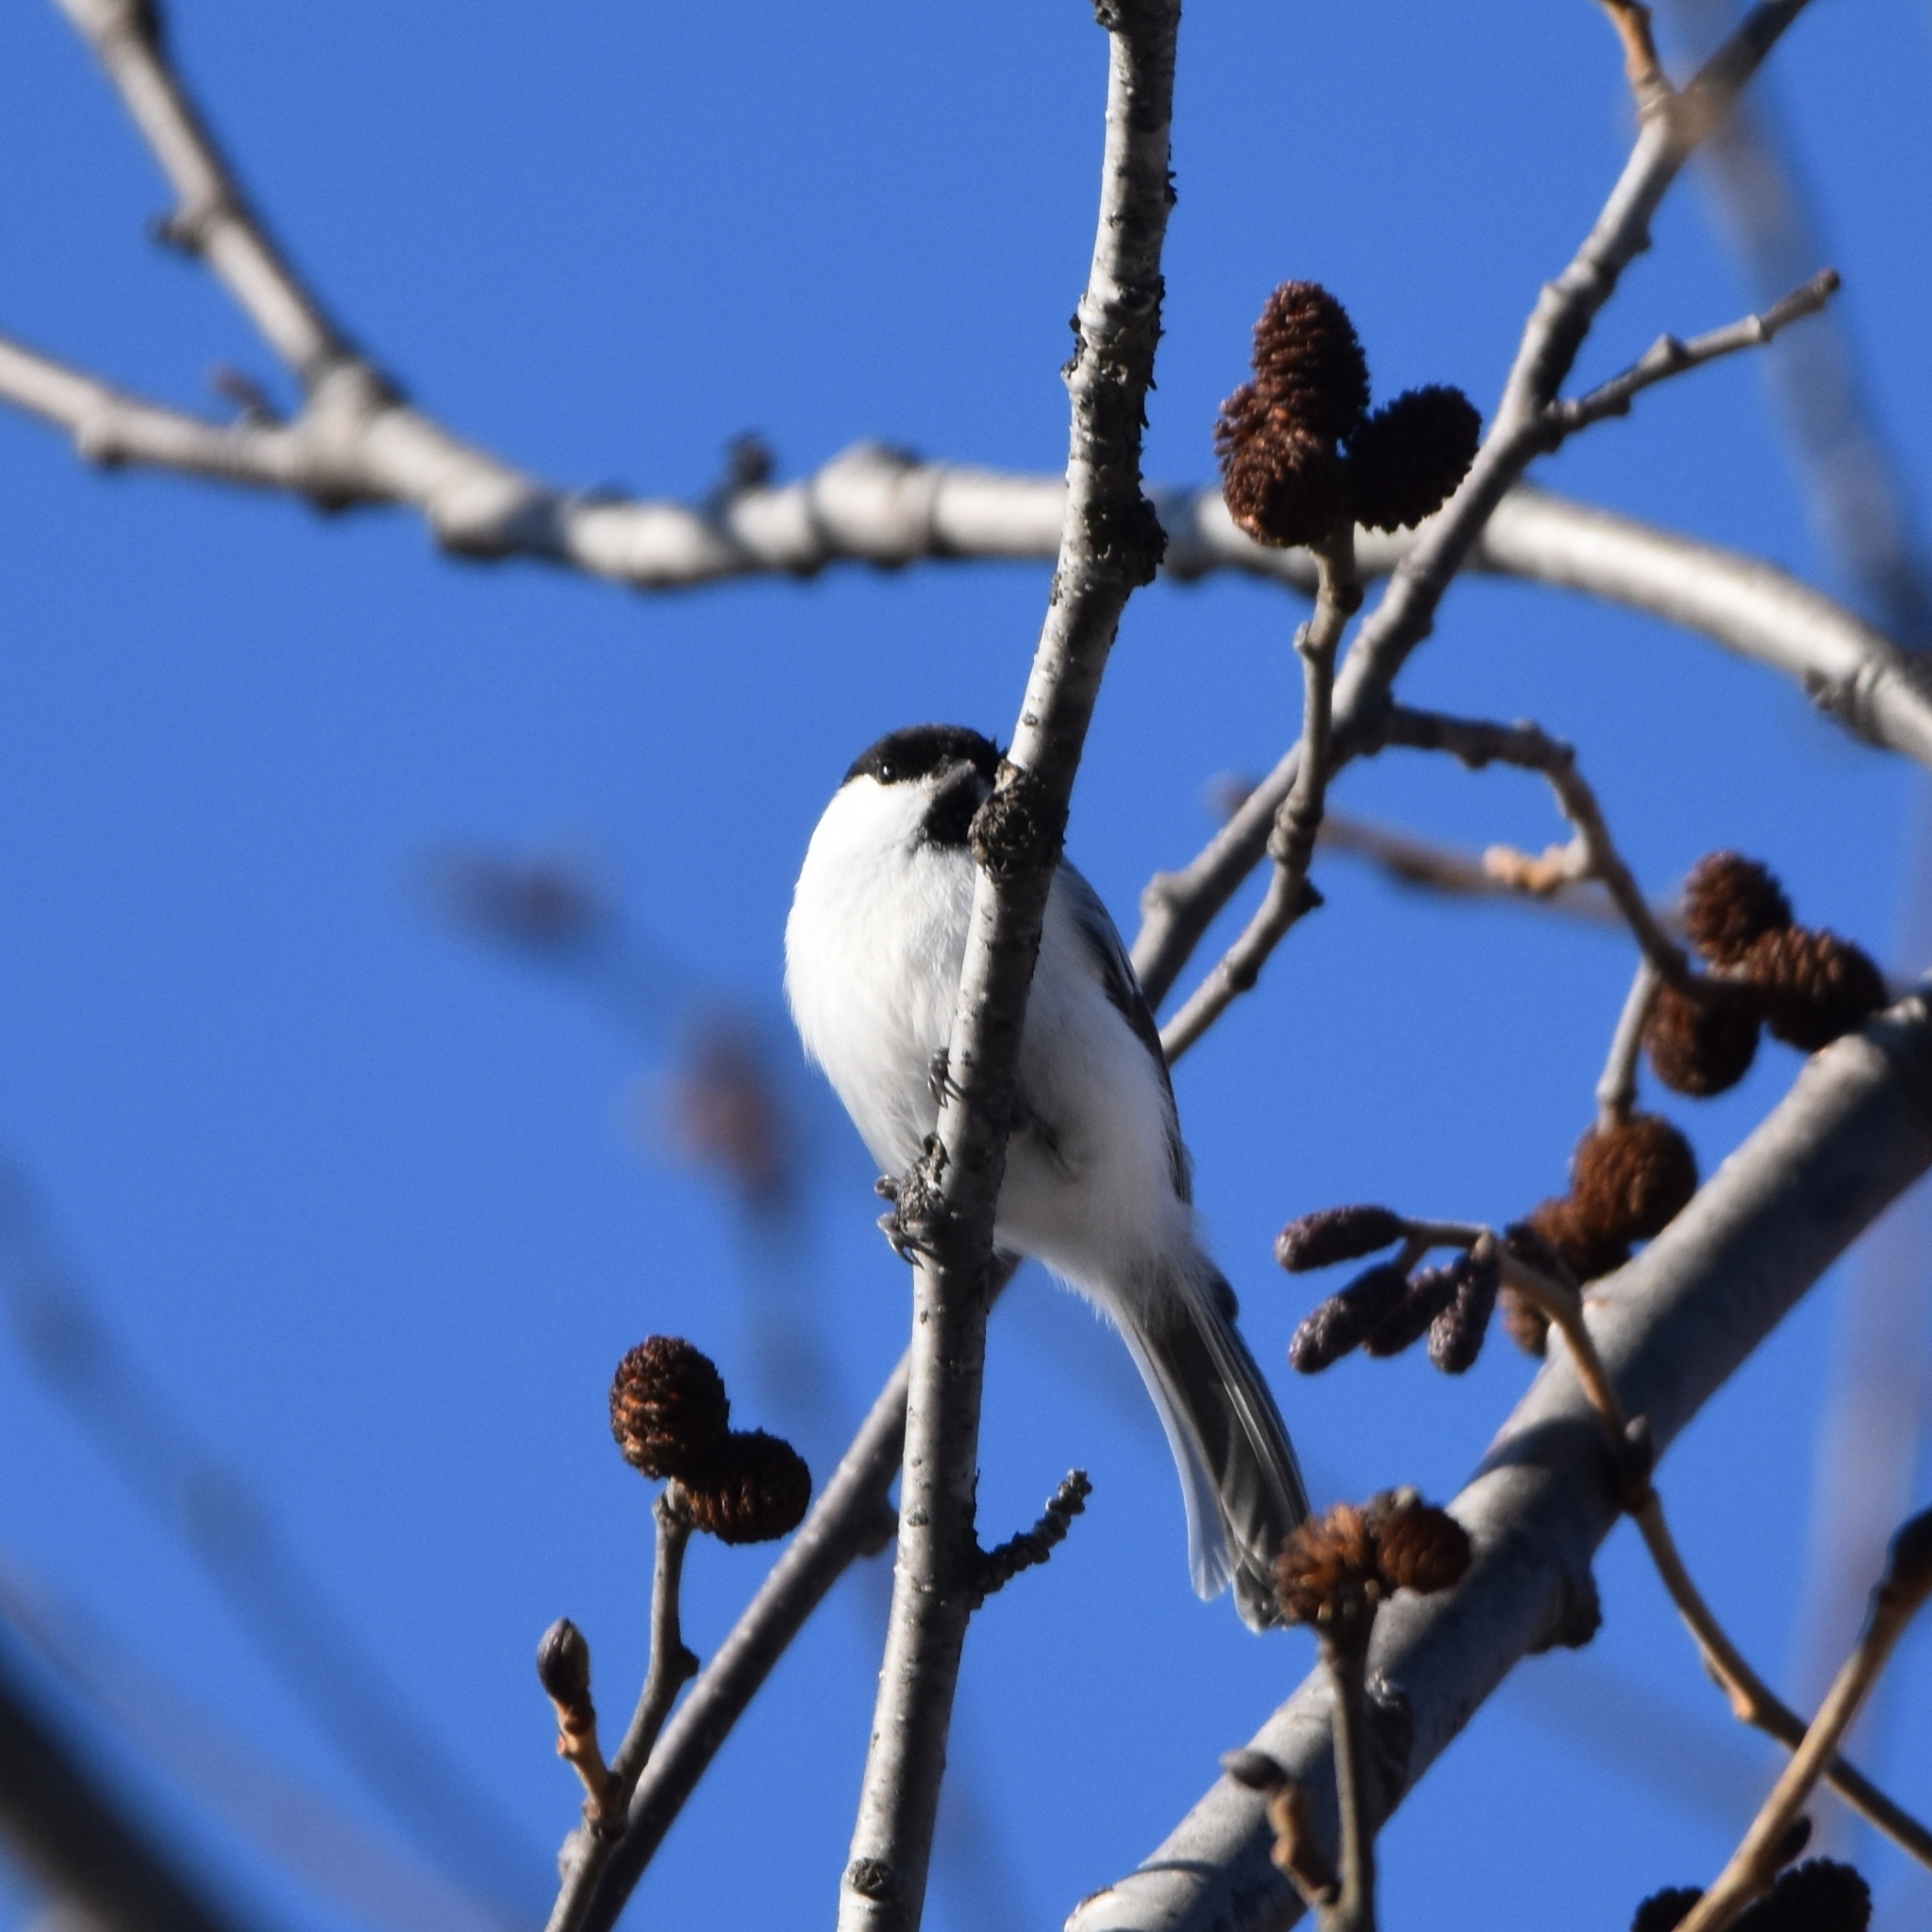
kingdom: Animalia
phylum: Chordata
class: Aves
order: Passeriformes
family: Paridae
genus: Poecile
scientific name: Poecile montanus
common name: Willow tit
